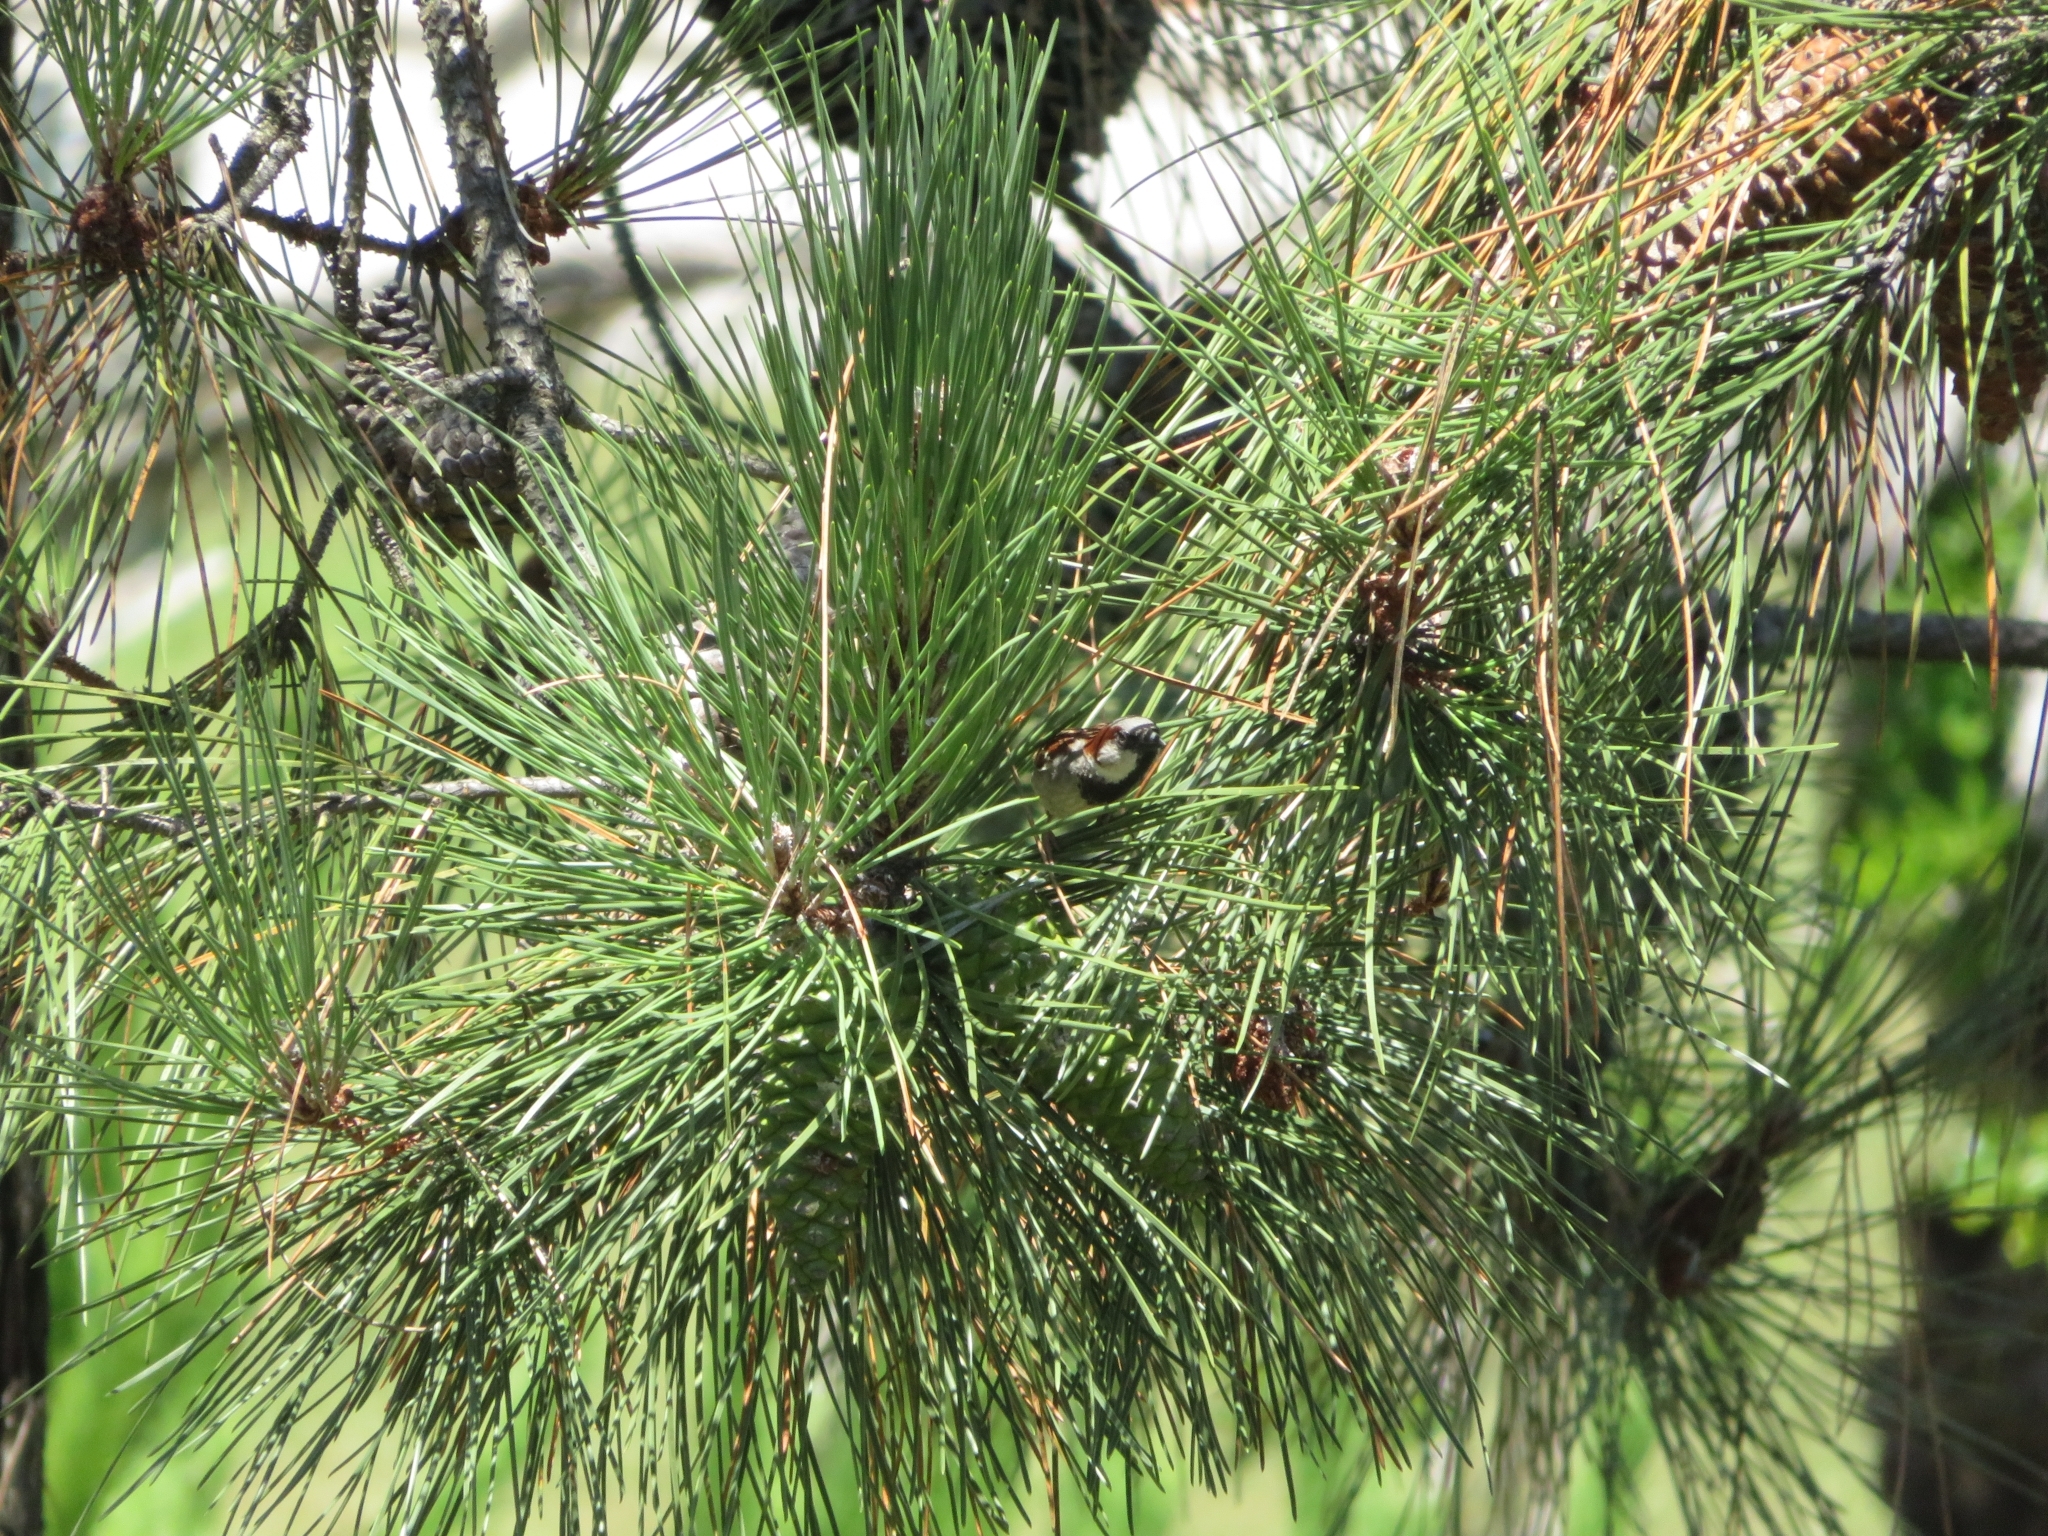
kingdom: Animalia
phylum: Chordata
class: Aves
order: Passeriformes
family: Passeridae
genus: Passer
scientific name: Passer domesticus
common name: House sparrow
